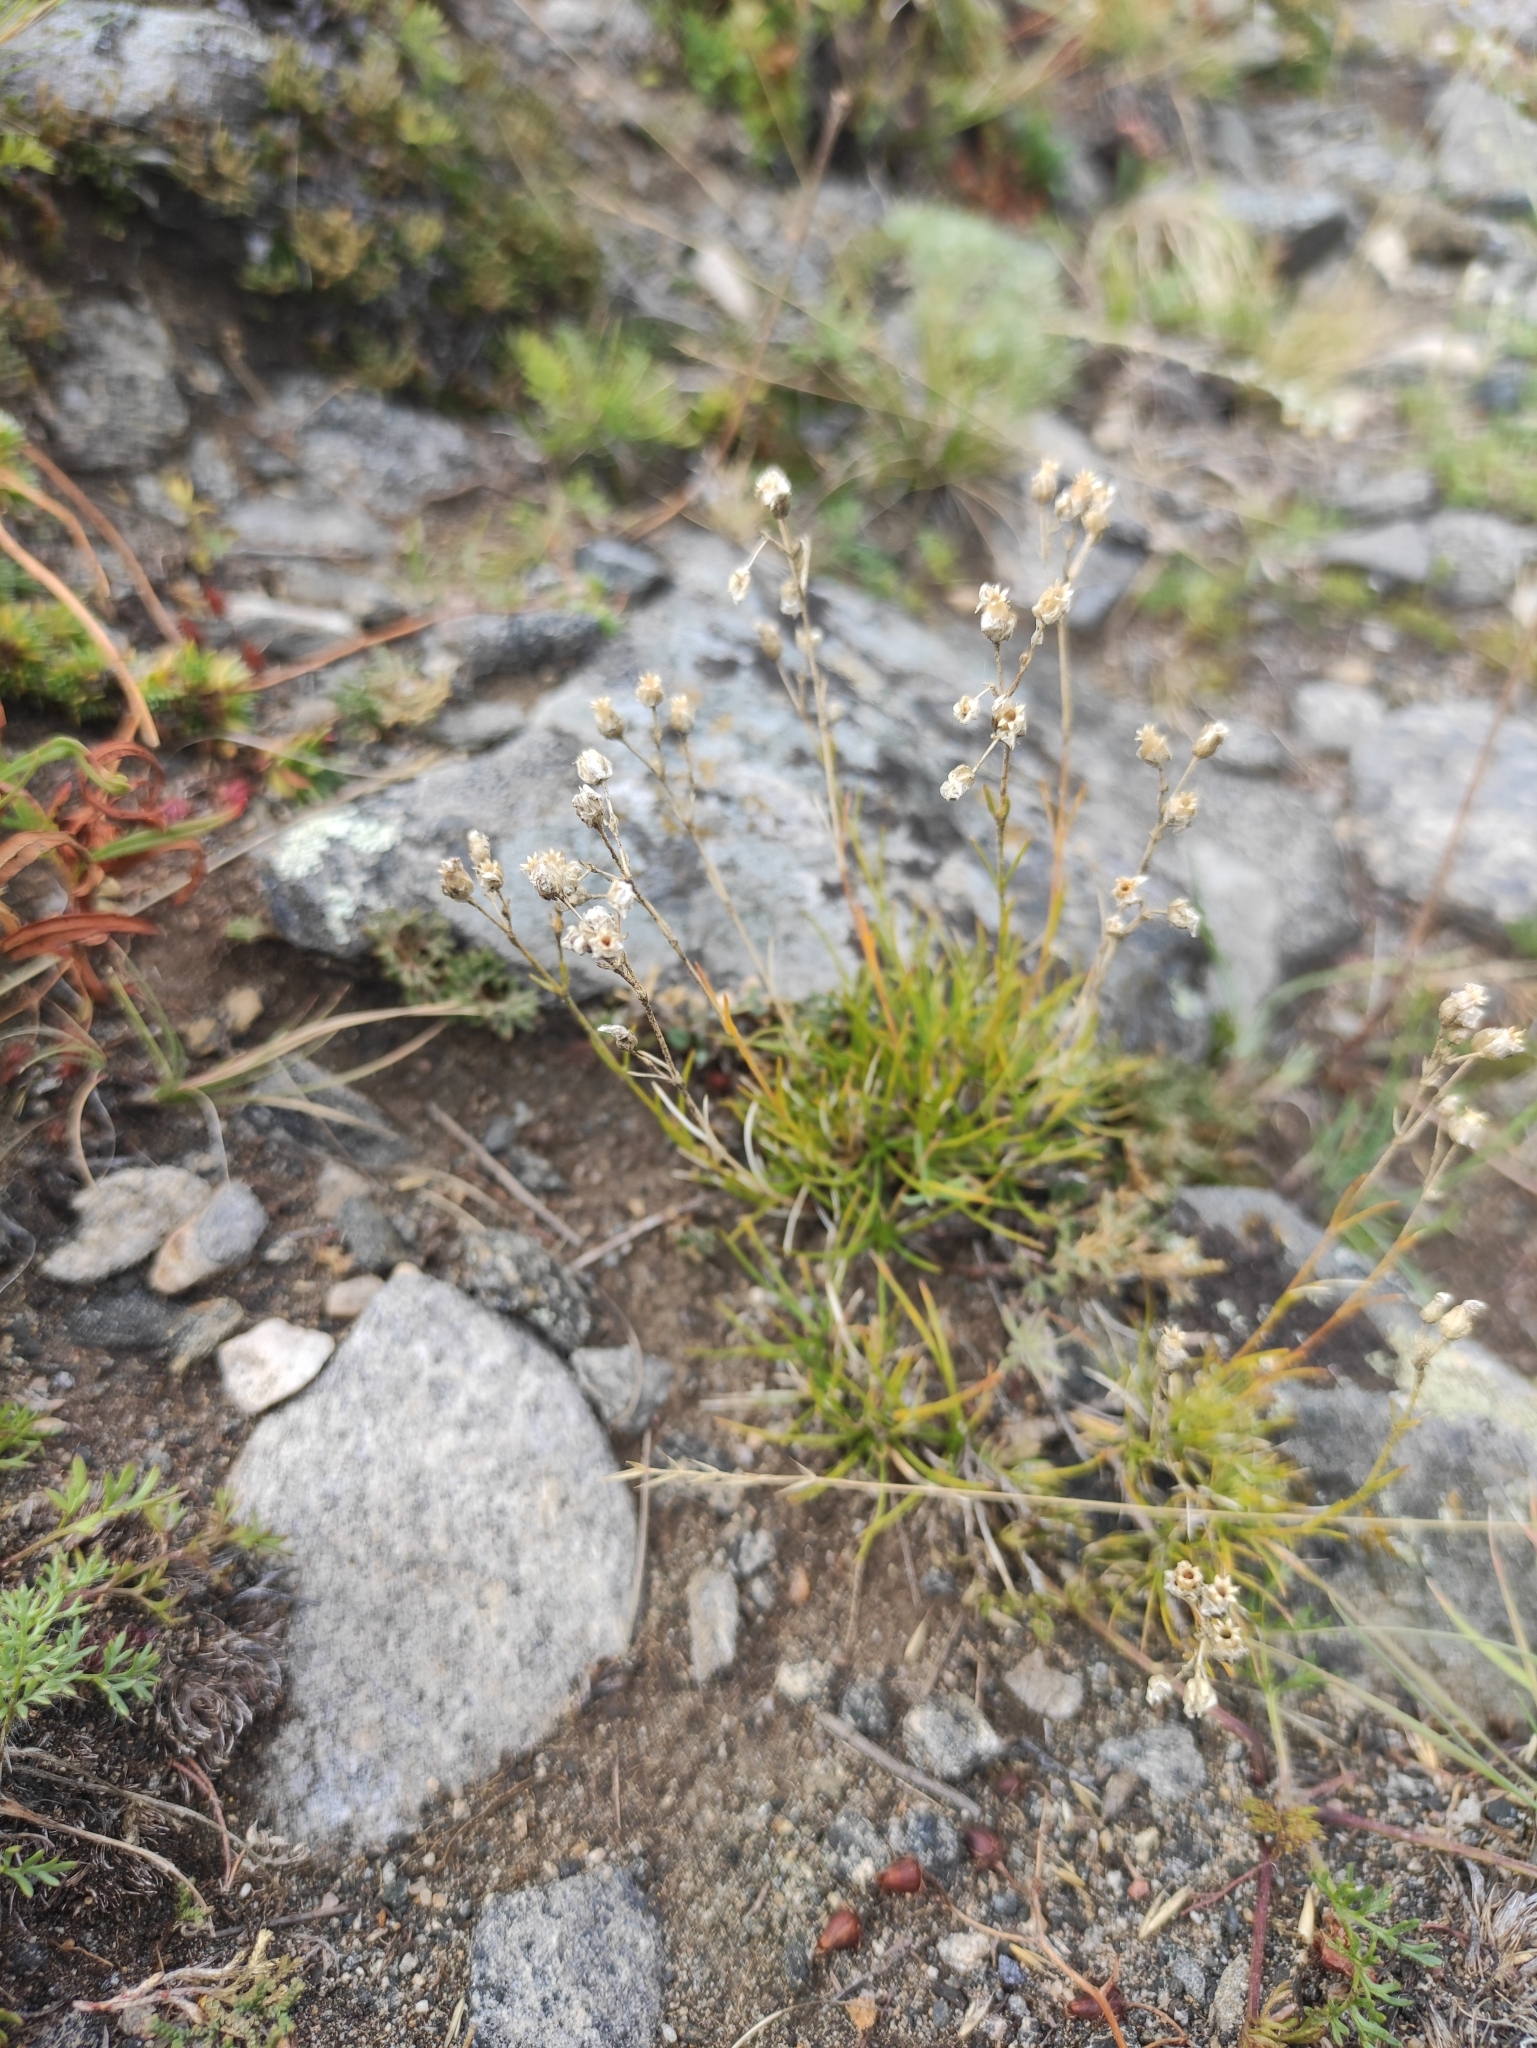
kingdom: Plantae
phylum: Tracheophyta
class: Magnoliopsida
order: Caryophyllales
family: Caryophyllaceae
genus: Eremogone
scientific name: Eremogone meyeri
